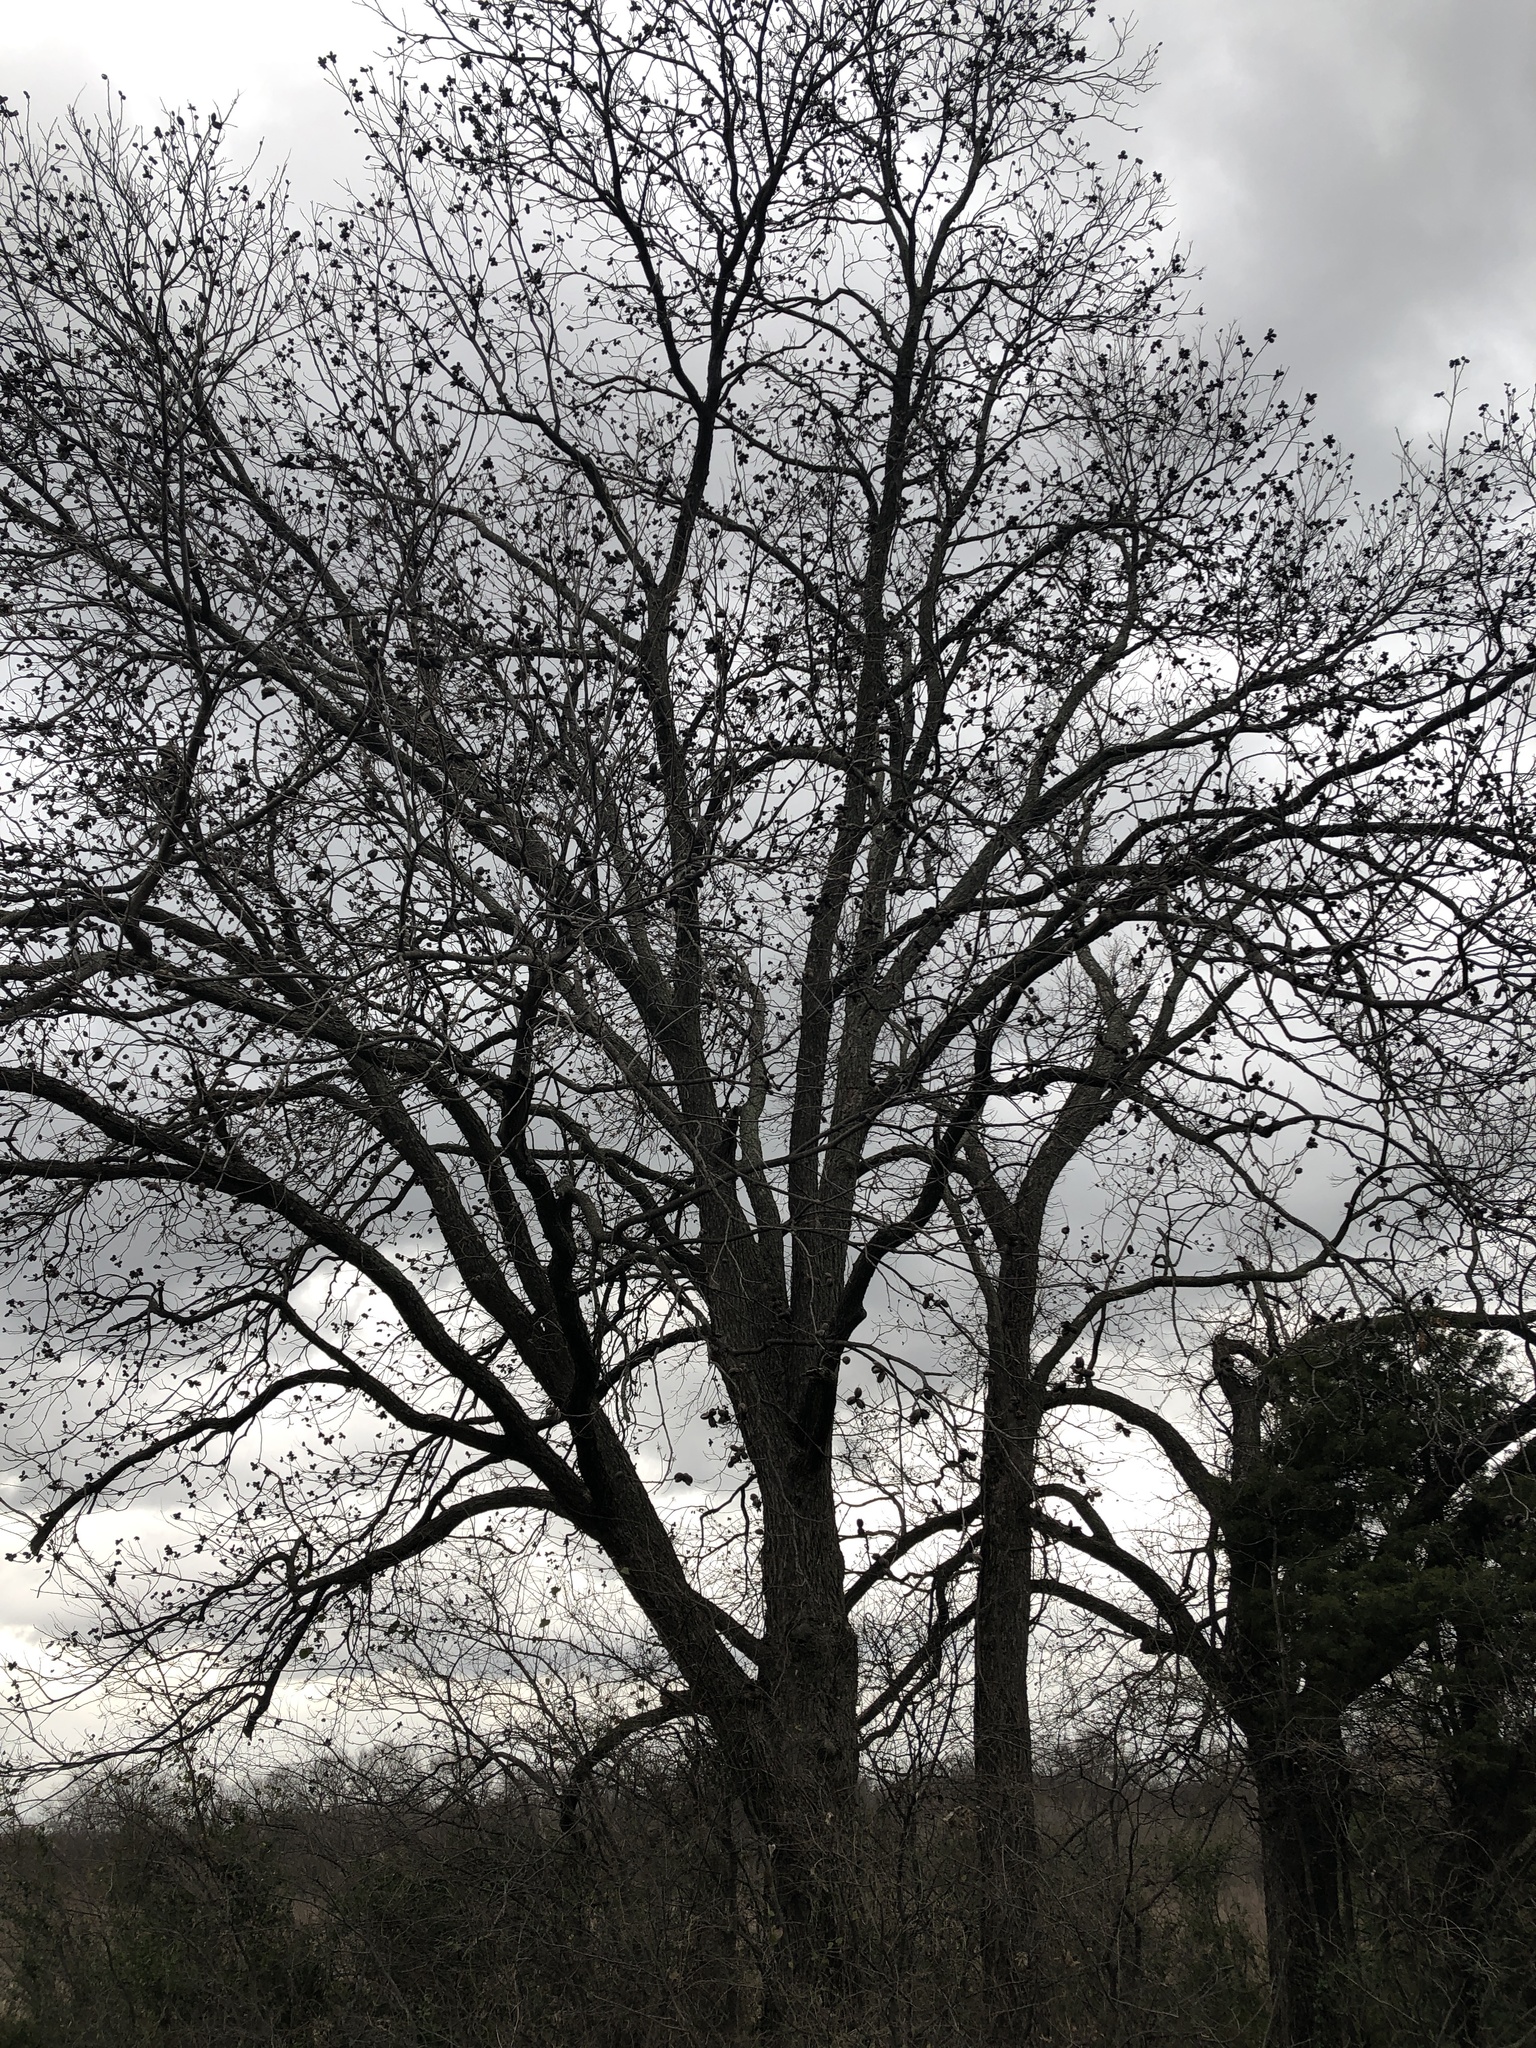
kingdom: Plantae
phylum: Tracheophyta
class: Magnoliopsida
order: Fagales
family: Juglandaceae
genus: Carya
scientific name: Carya illinoinensis
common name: Pecan
